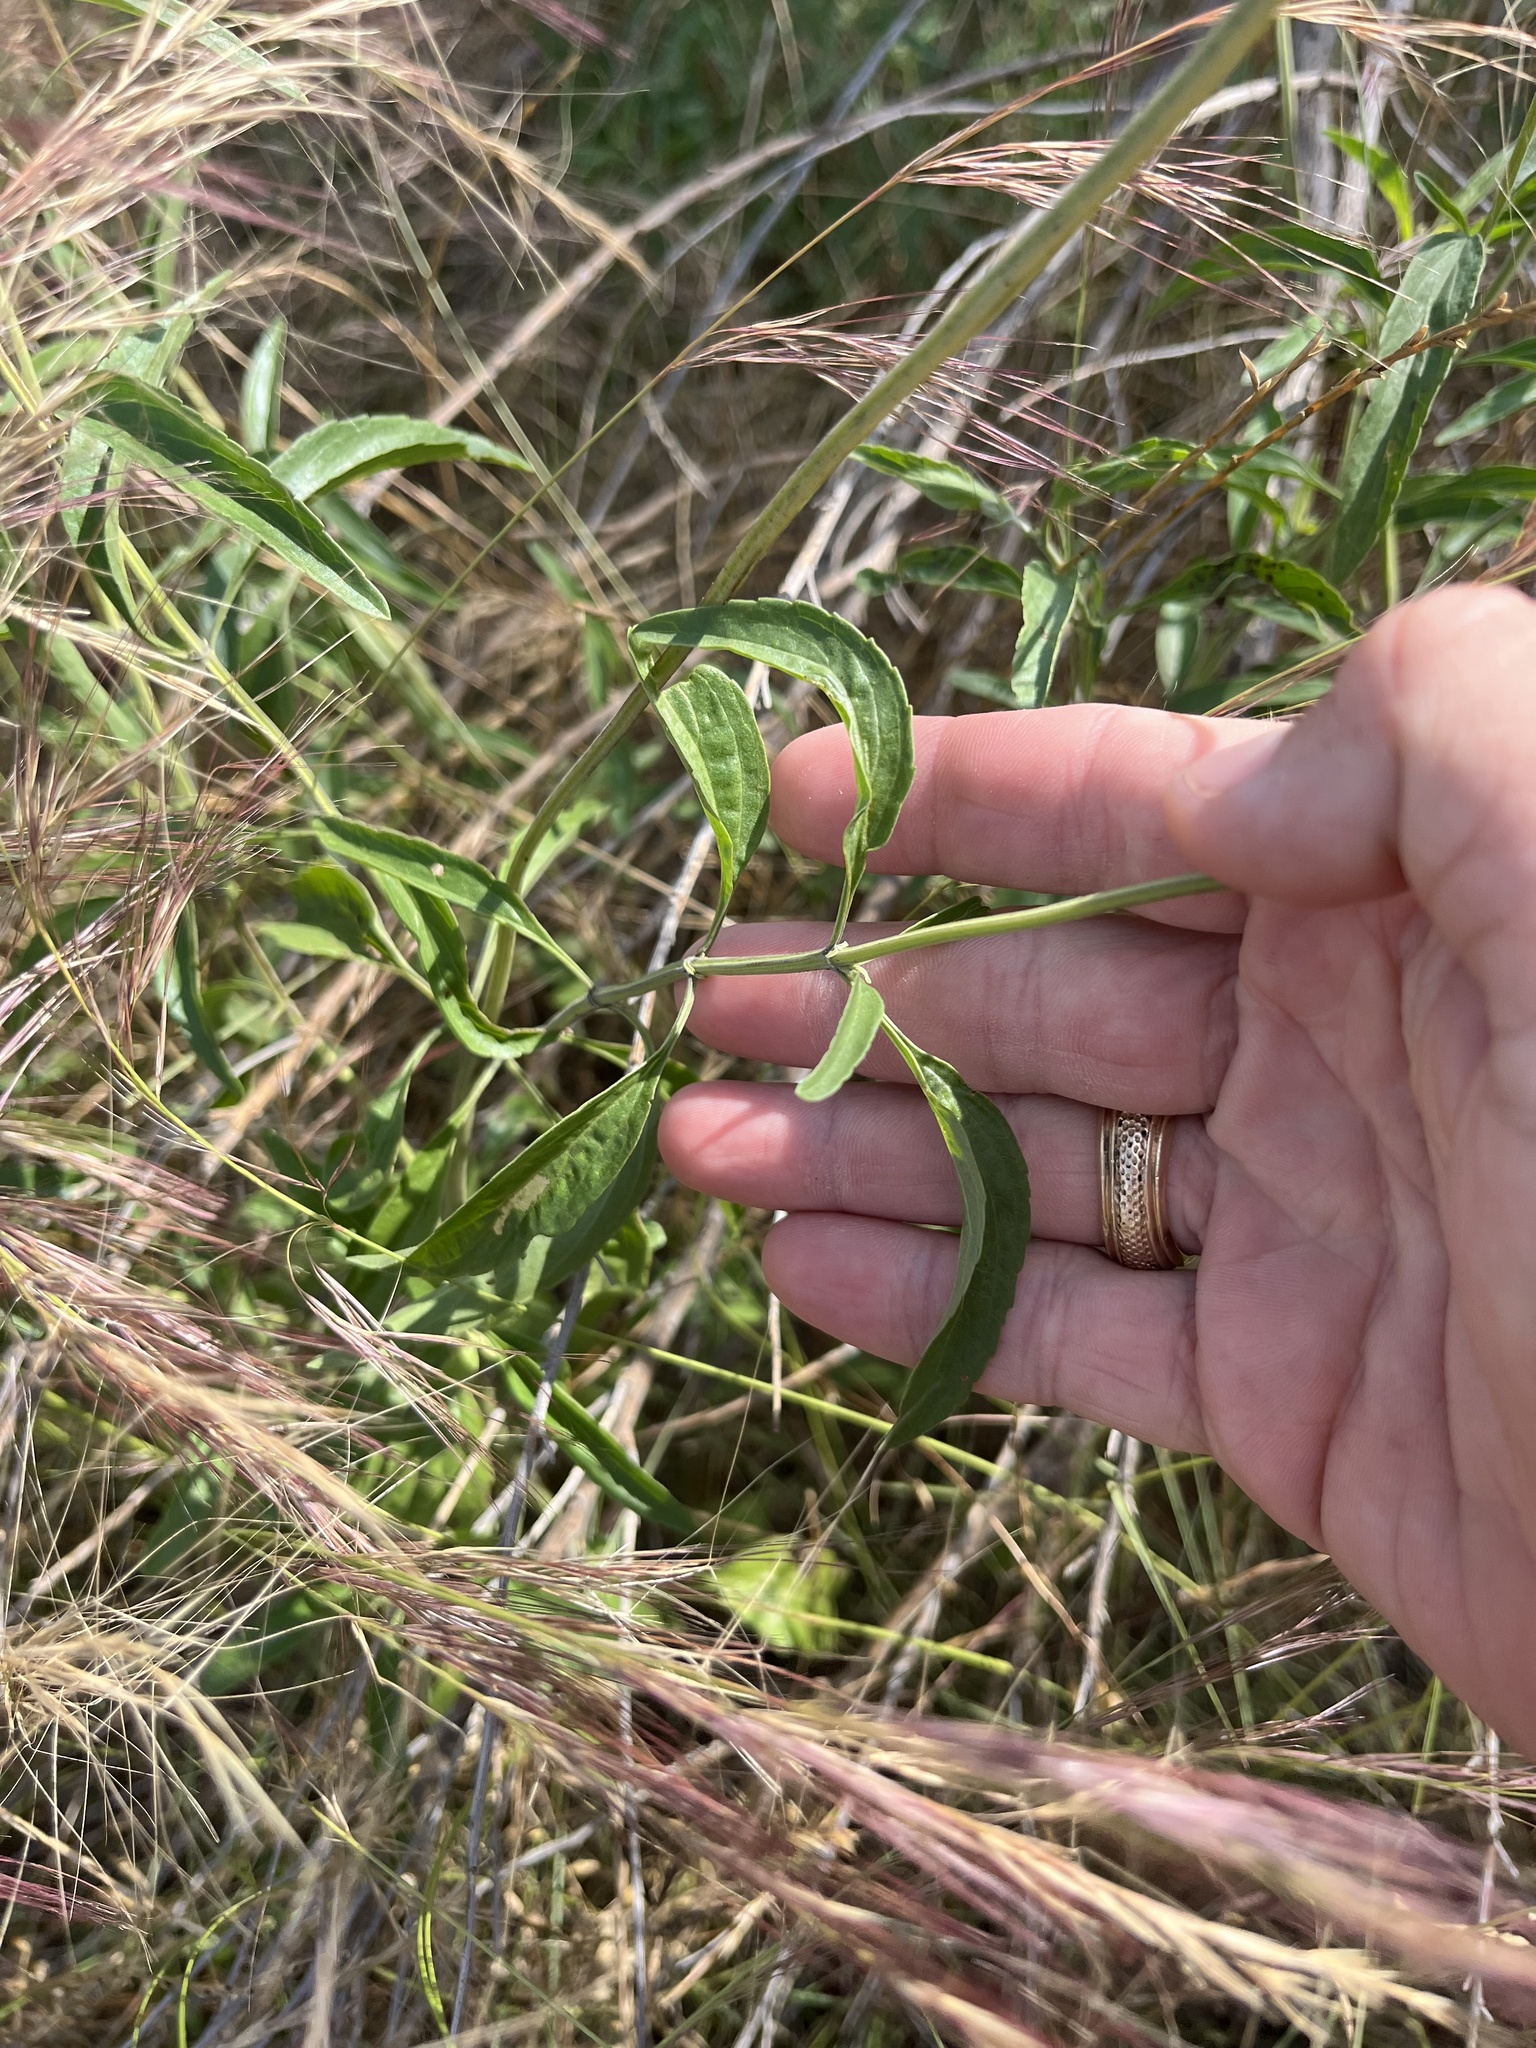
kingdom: Plantae
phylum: Tracheophyta
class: Magnoliopsida
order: Lamiales
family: Lamiaceae
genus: Salvia
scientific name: Salvia farinacea
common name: Mealy sage
